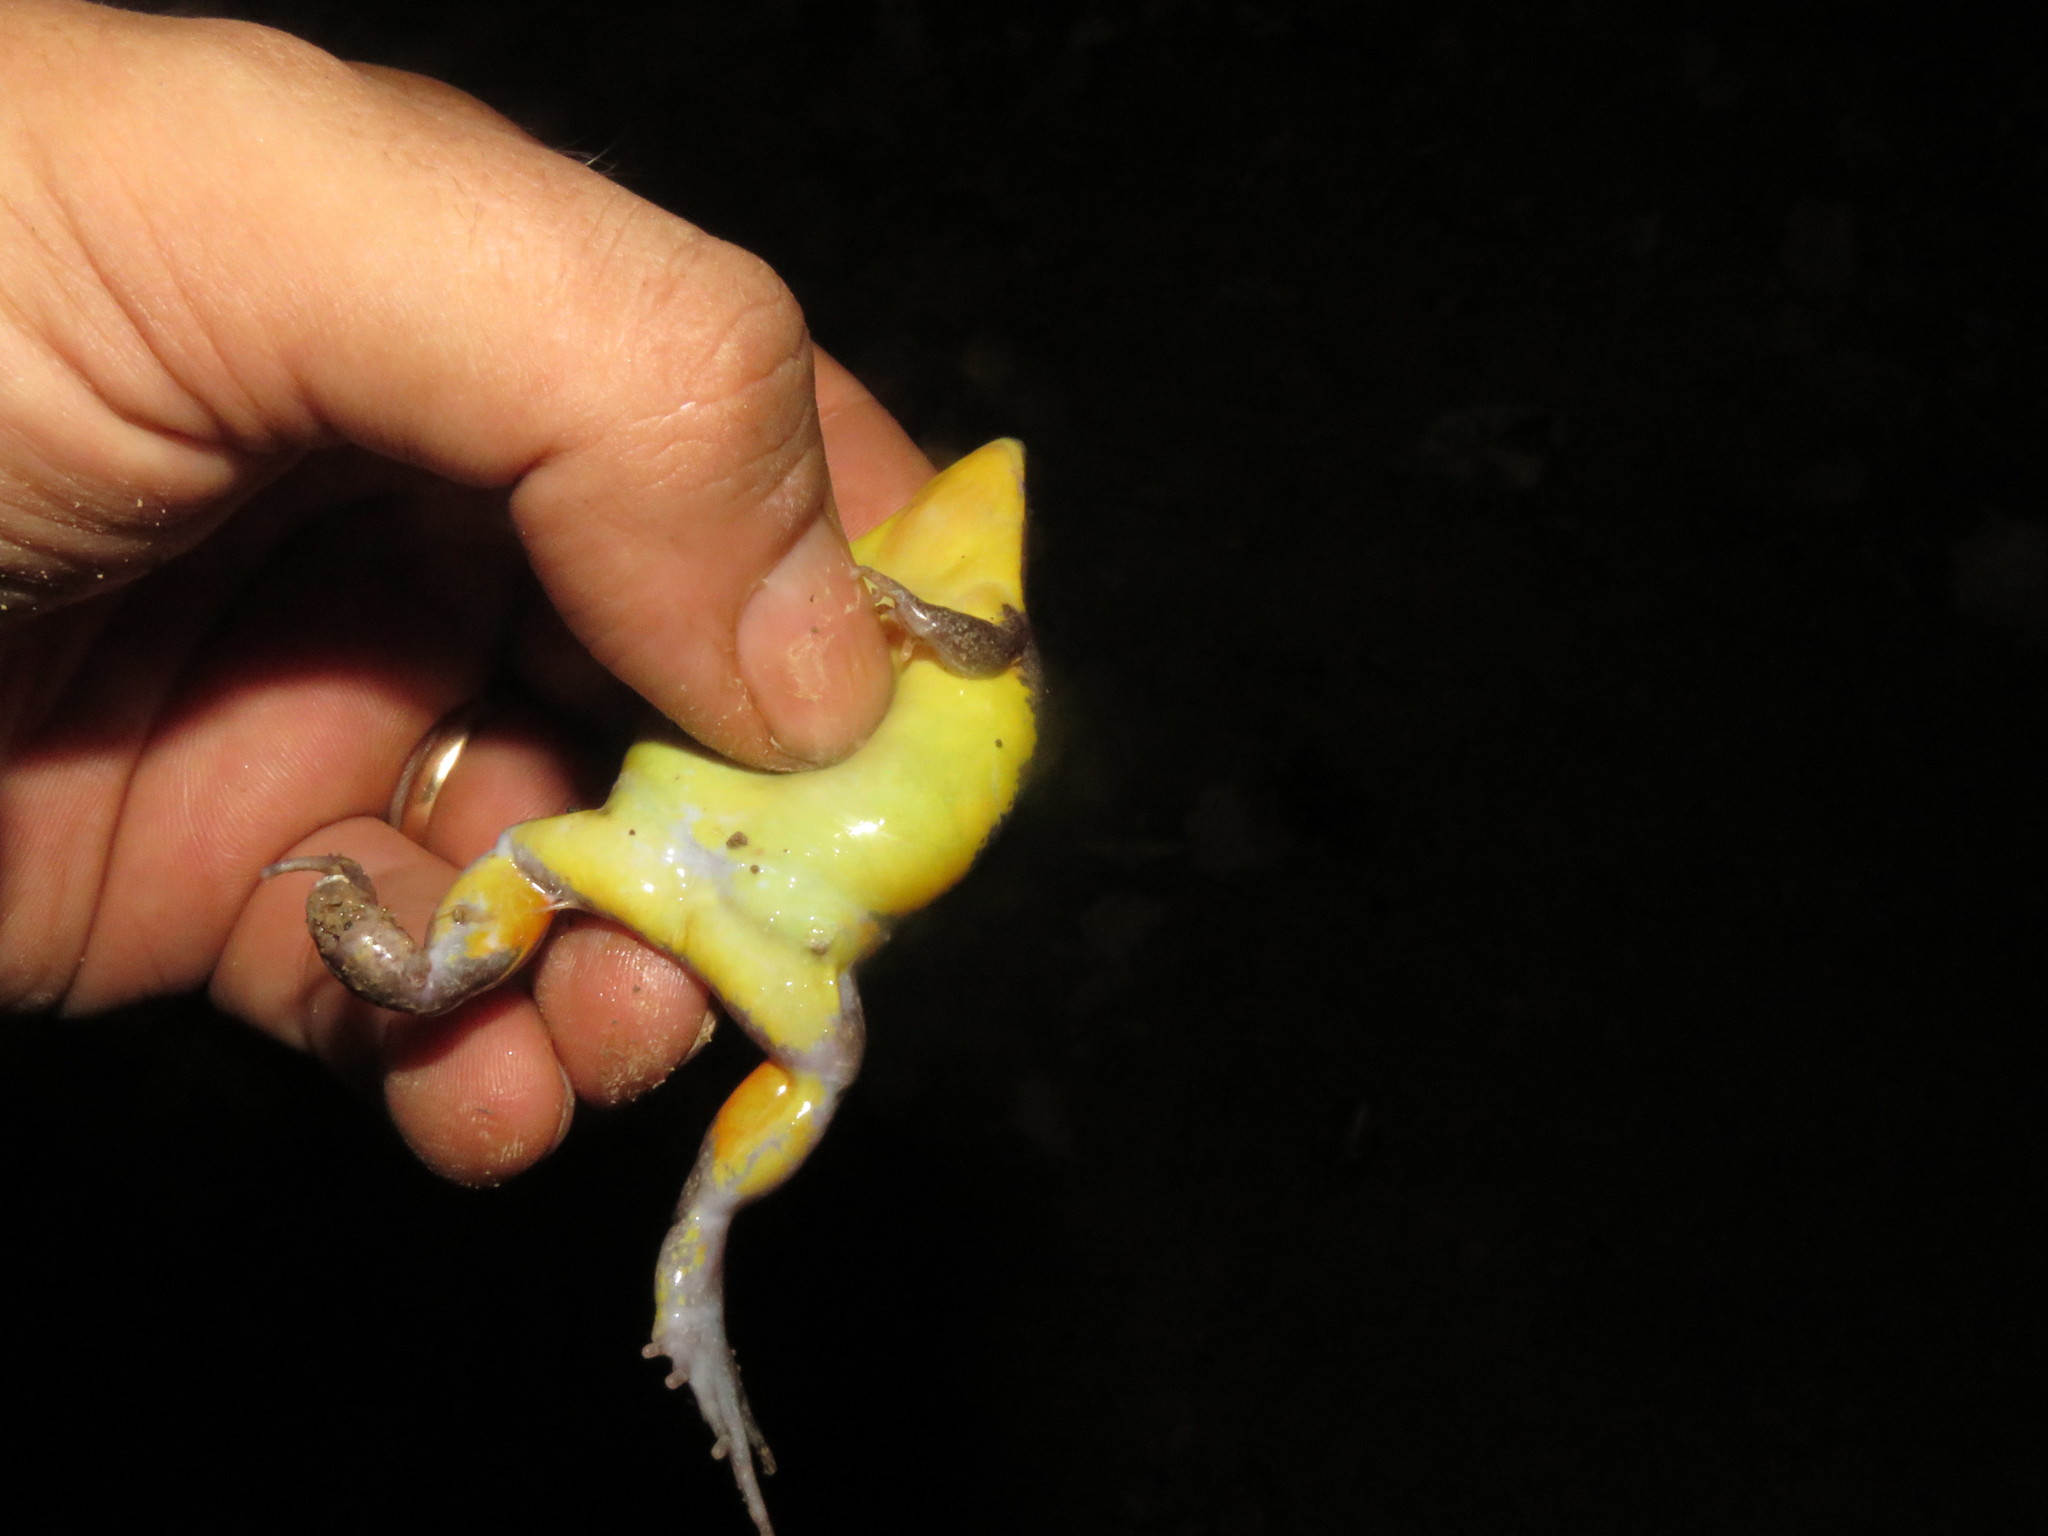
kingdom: Animalia
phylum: Chordata
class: Amphibia
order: Anura
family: Microhylidae
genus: Elachistocleis
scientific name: Elachistocleis helianneae
